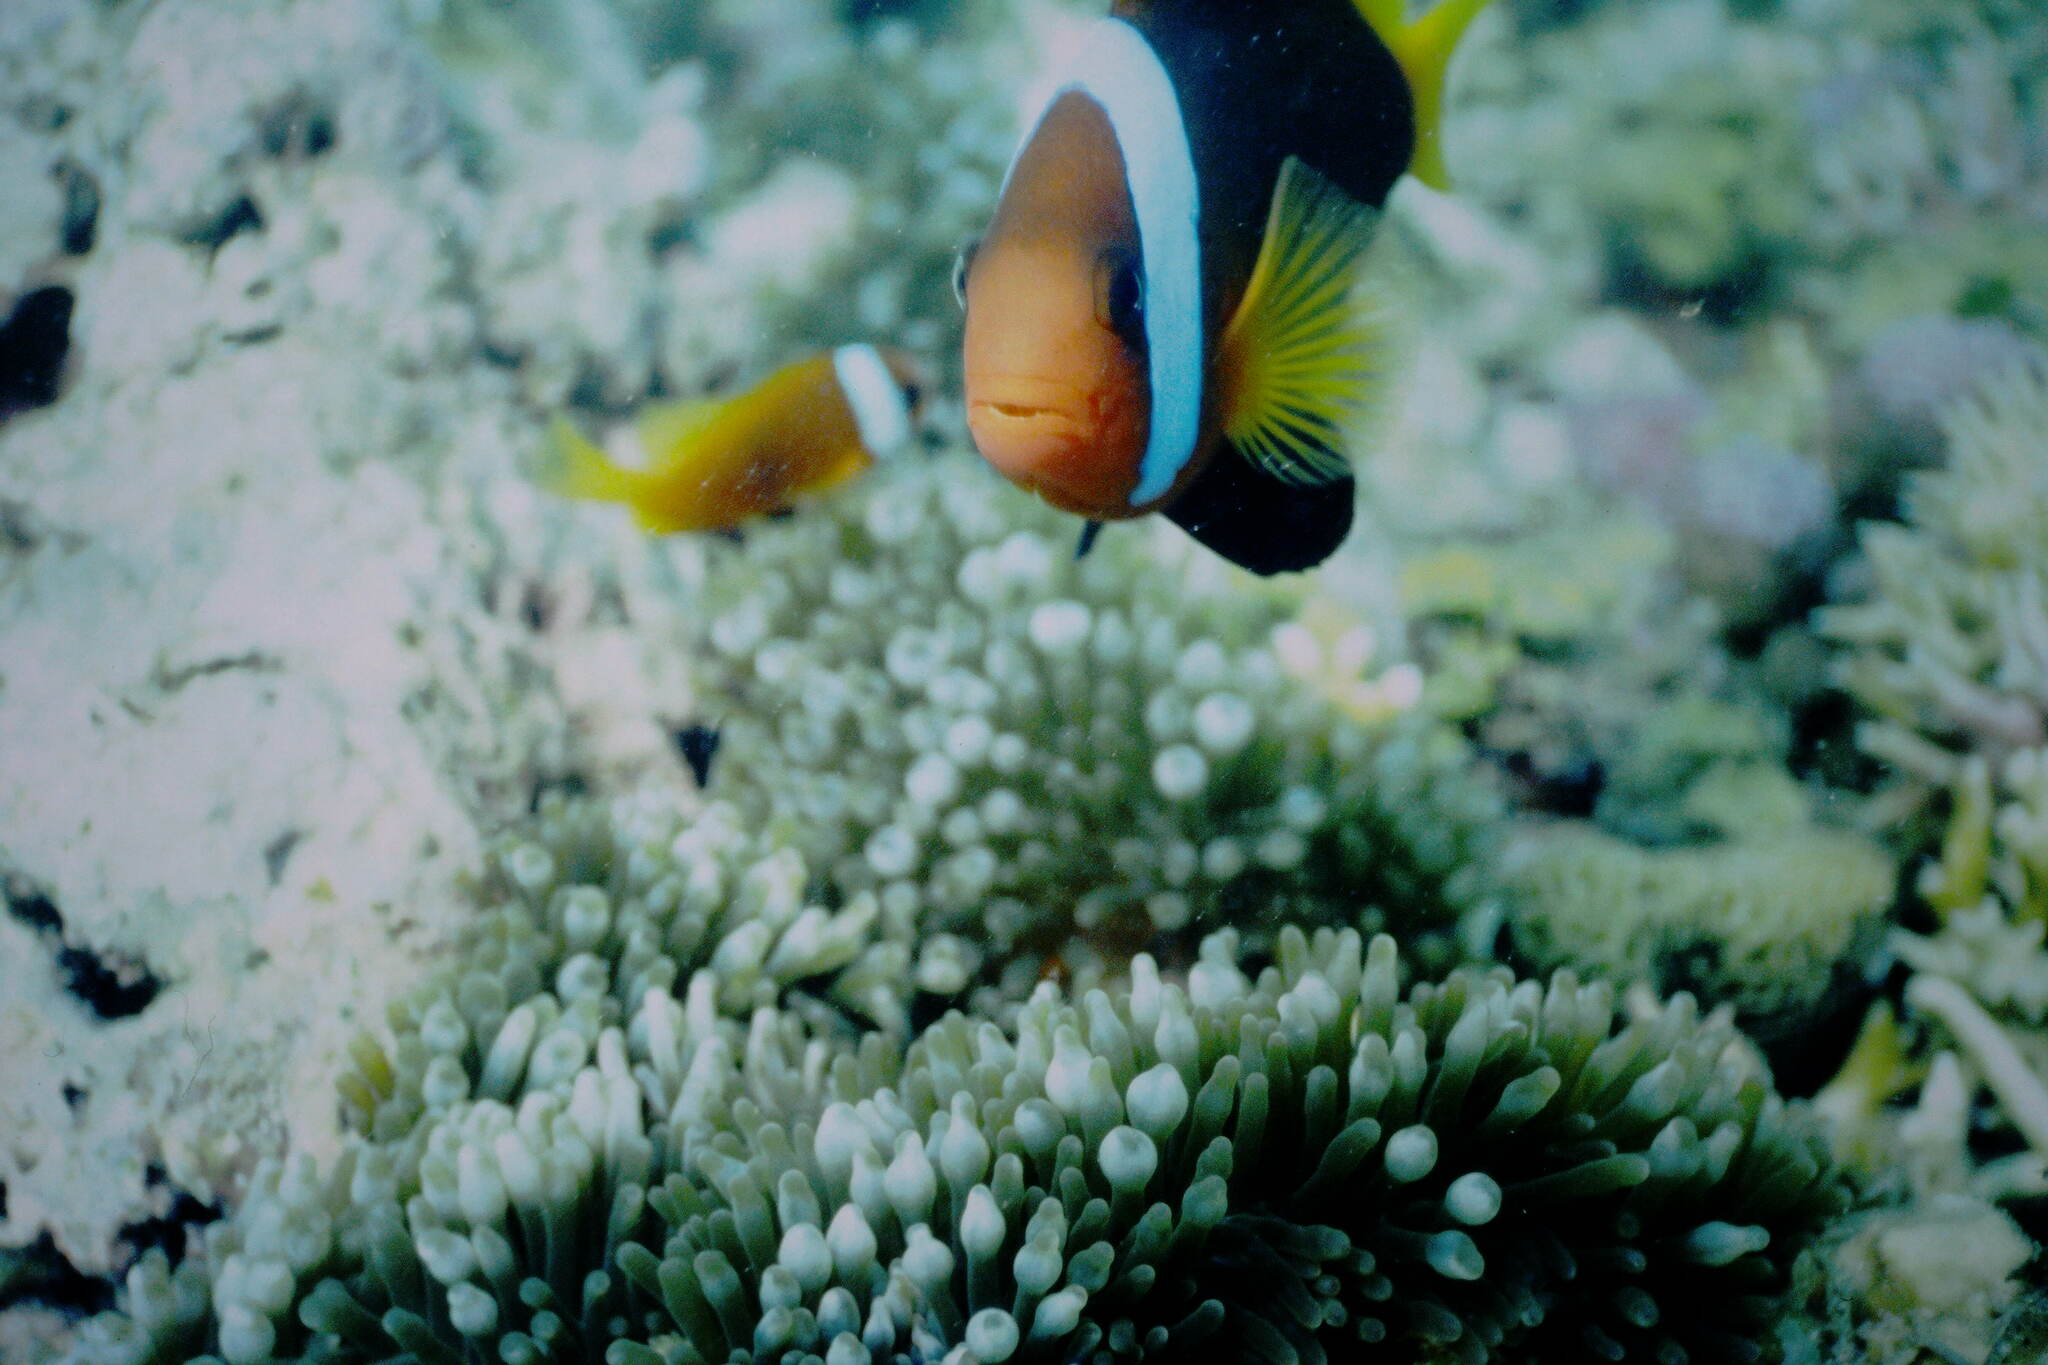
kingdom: Animalia
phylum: Chordata
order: Perciformes
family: Pomacentridae
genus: Amphiprion
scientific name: Amphiprion melanopus
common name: Black anemonefish
